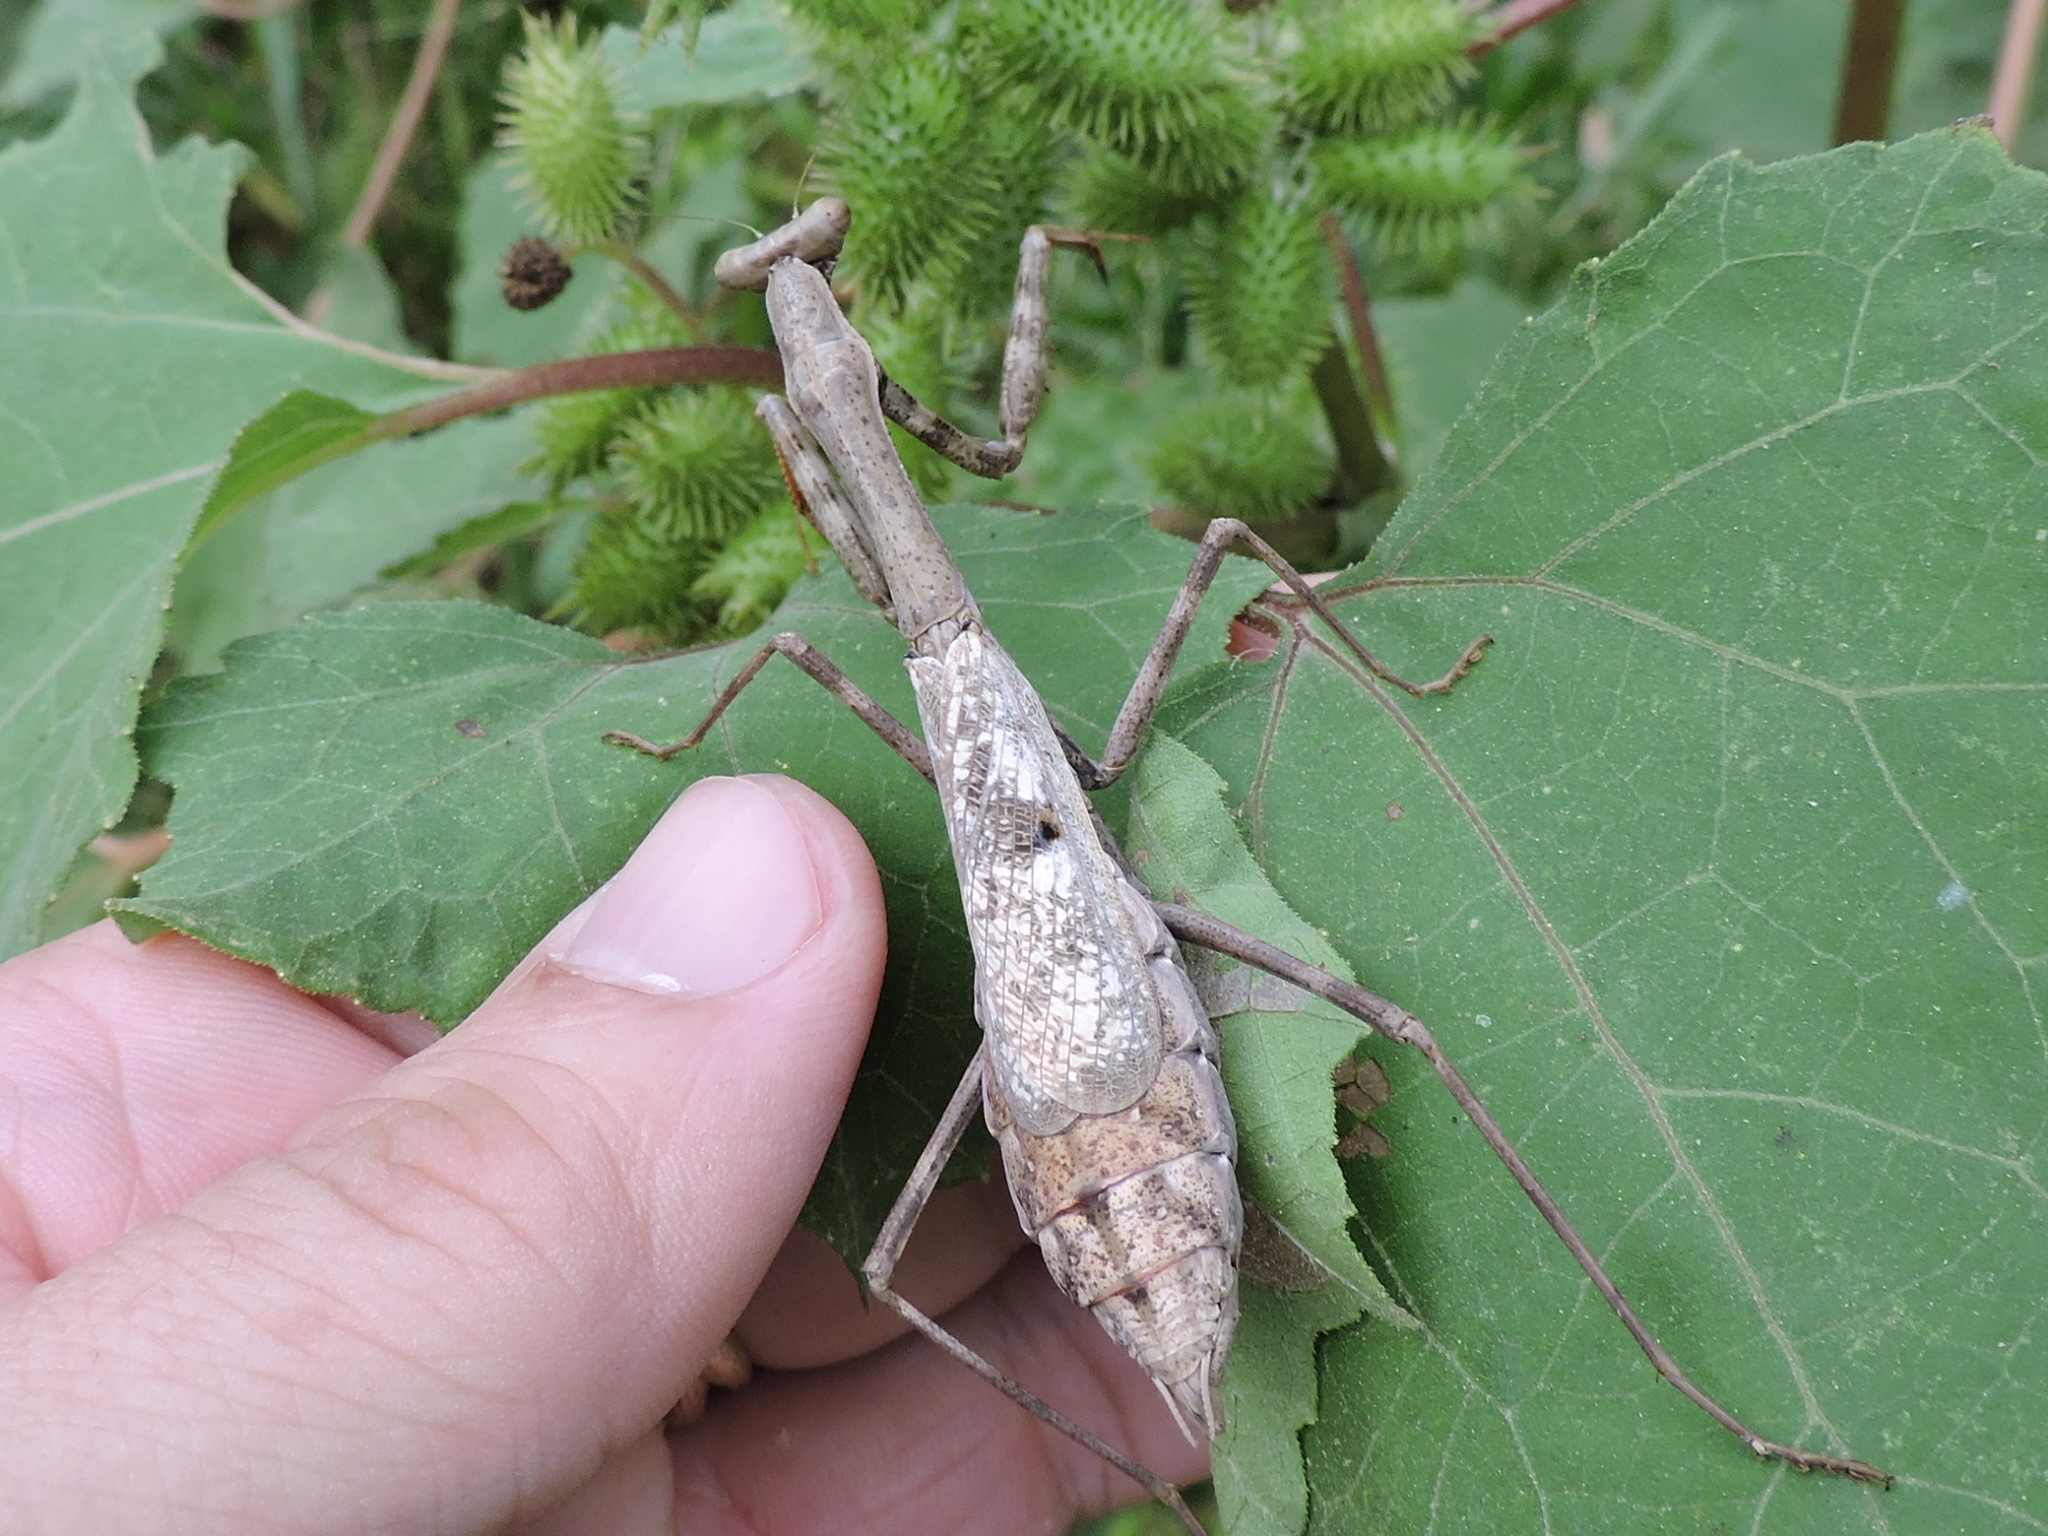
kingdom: Animalia
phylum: Arthropoda
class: Insecta
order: Mantodea
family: Mantidae
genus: Stagmomantis
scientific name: Stagmomantis carolina
